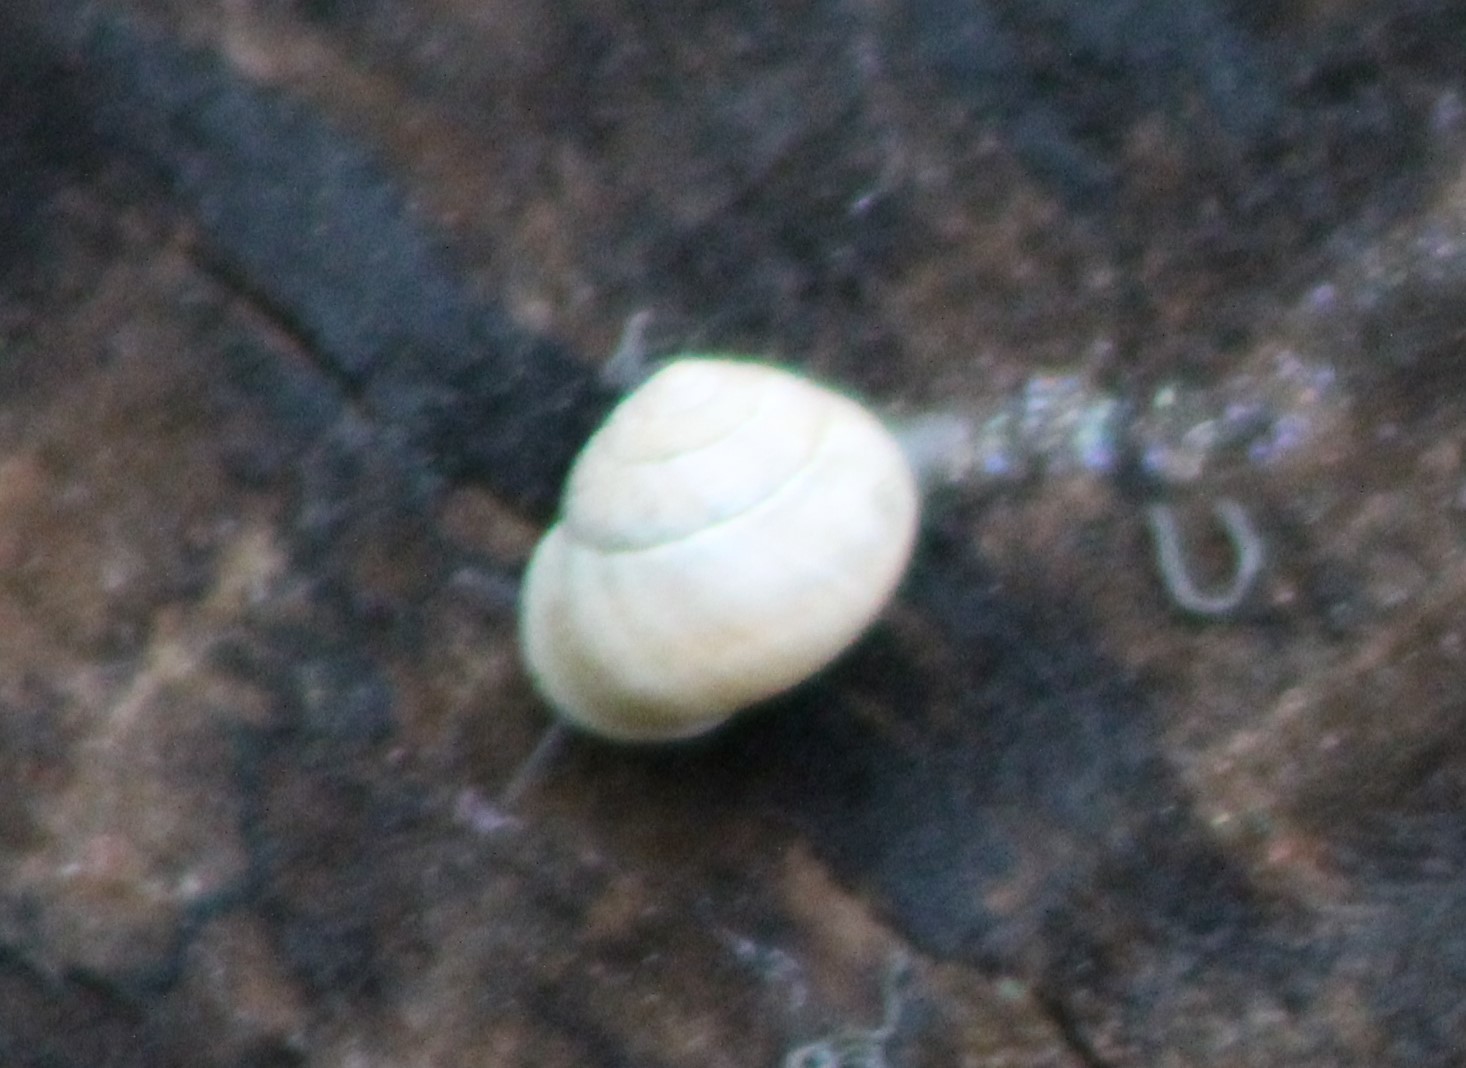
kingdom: Animalia
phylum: Mollusca
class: Gastropoda
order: Cycloneritida
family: Helicinidae
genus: Helicina
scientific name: Helicina orbiculata
